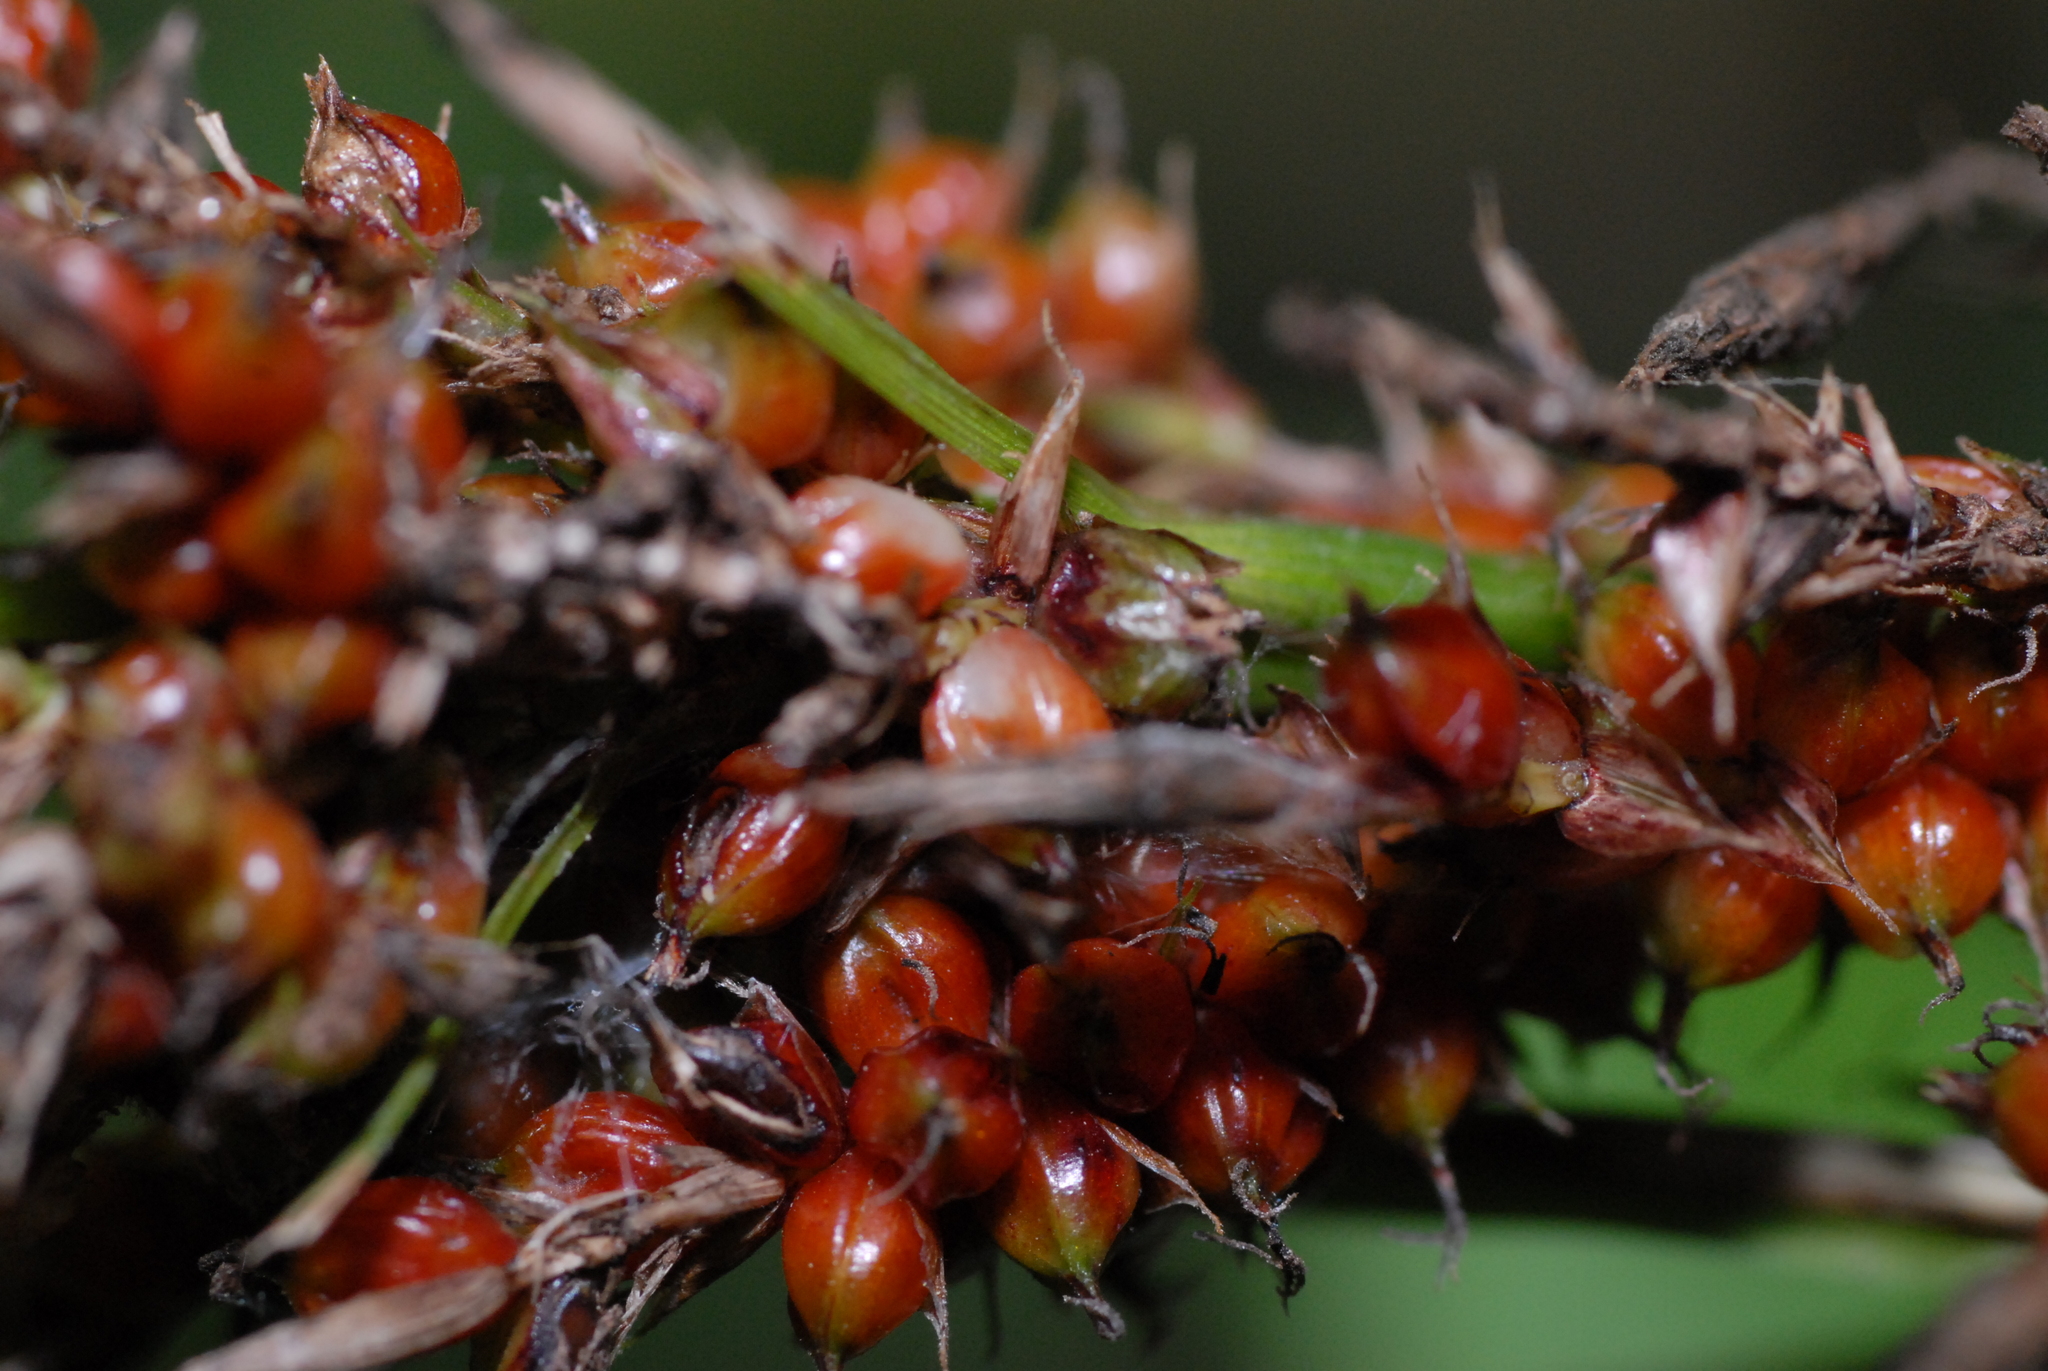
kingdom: Plantae
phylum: Tracheophyta
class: Liliopsida
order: Poales
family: Cyperaceae
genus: Carex
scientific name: Carex baccans
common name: Crimson seeded sedge
